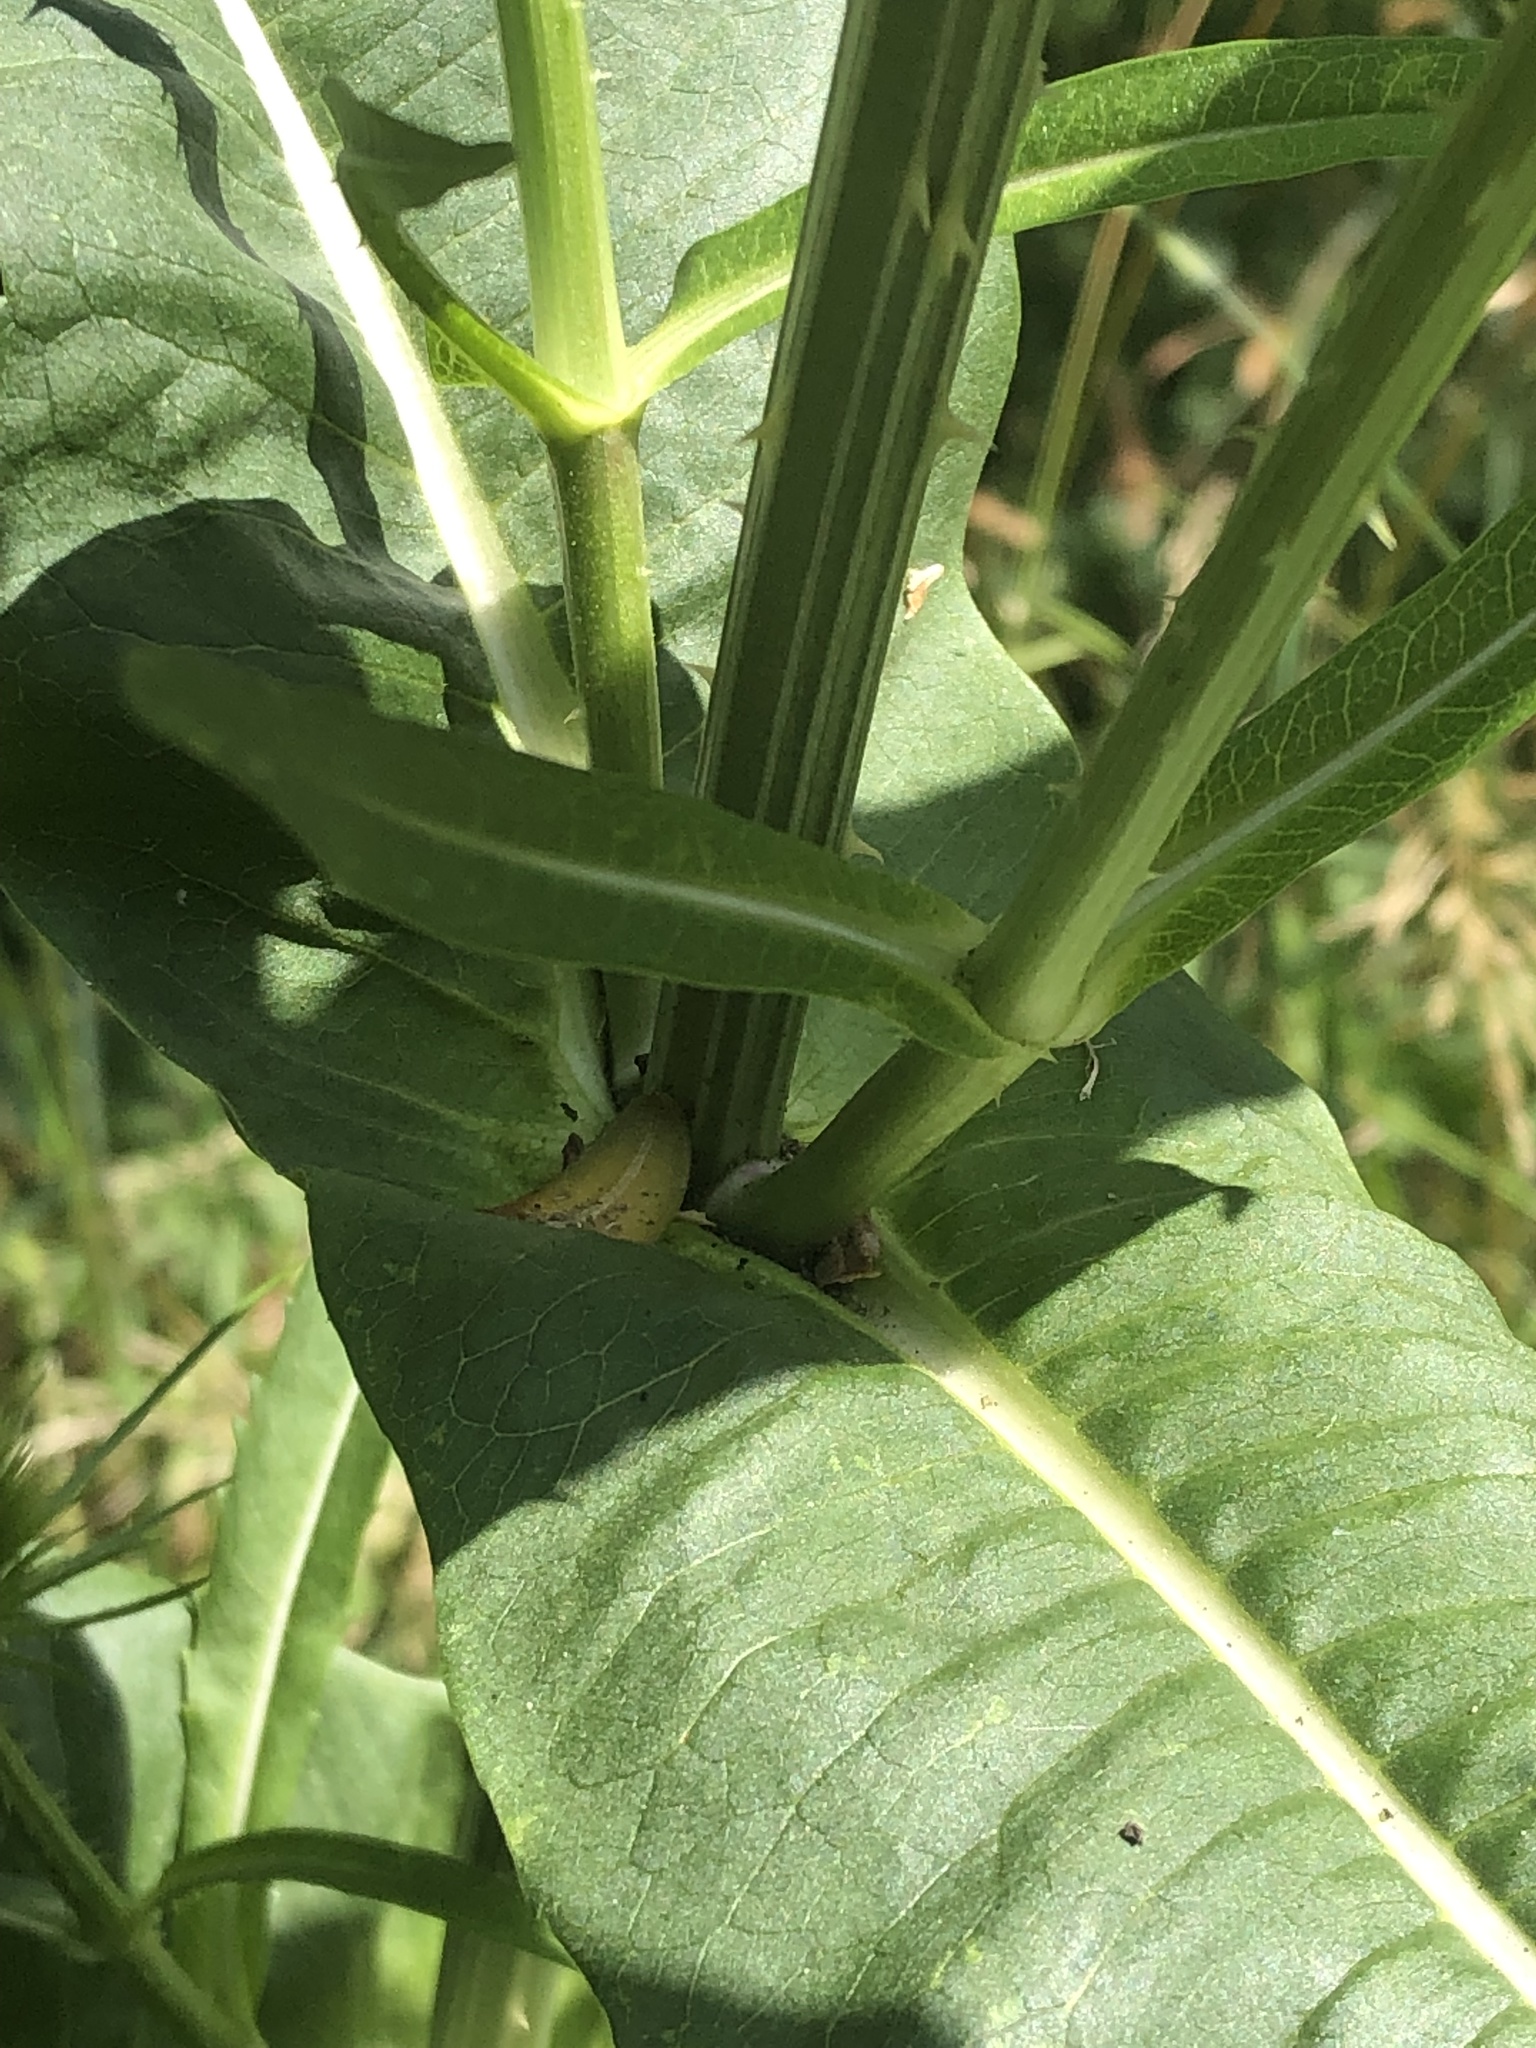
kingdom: Plantae
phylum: Tracheophyta
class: Magnoliopsida
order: Dipsacales
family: Caprifoliaceae
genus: Dipsacus
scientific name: Dipsacus fullonum
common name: Teasel
